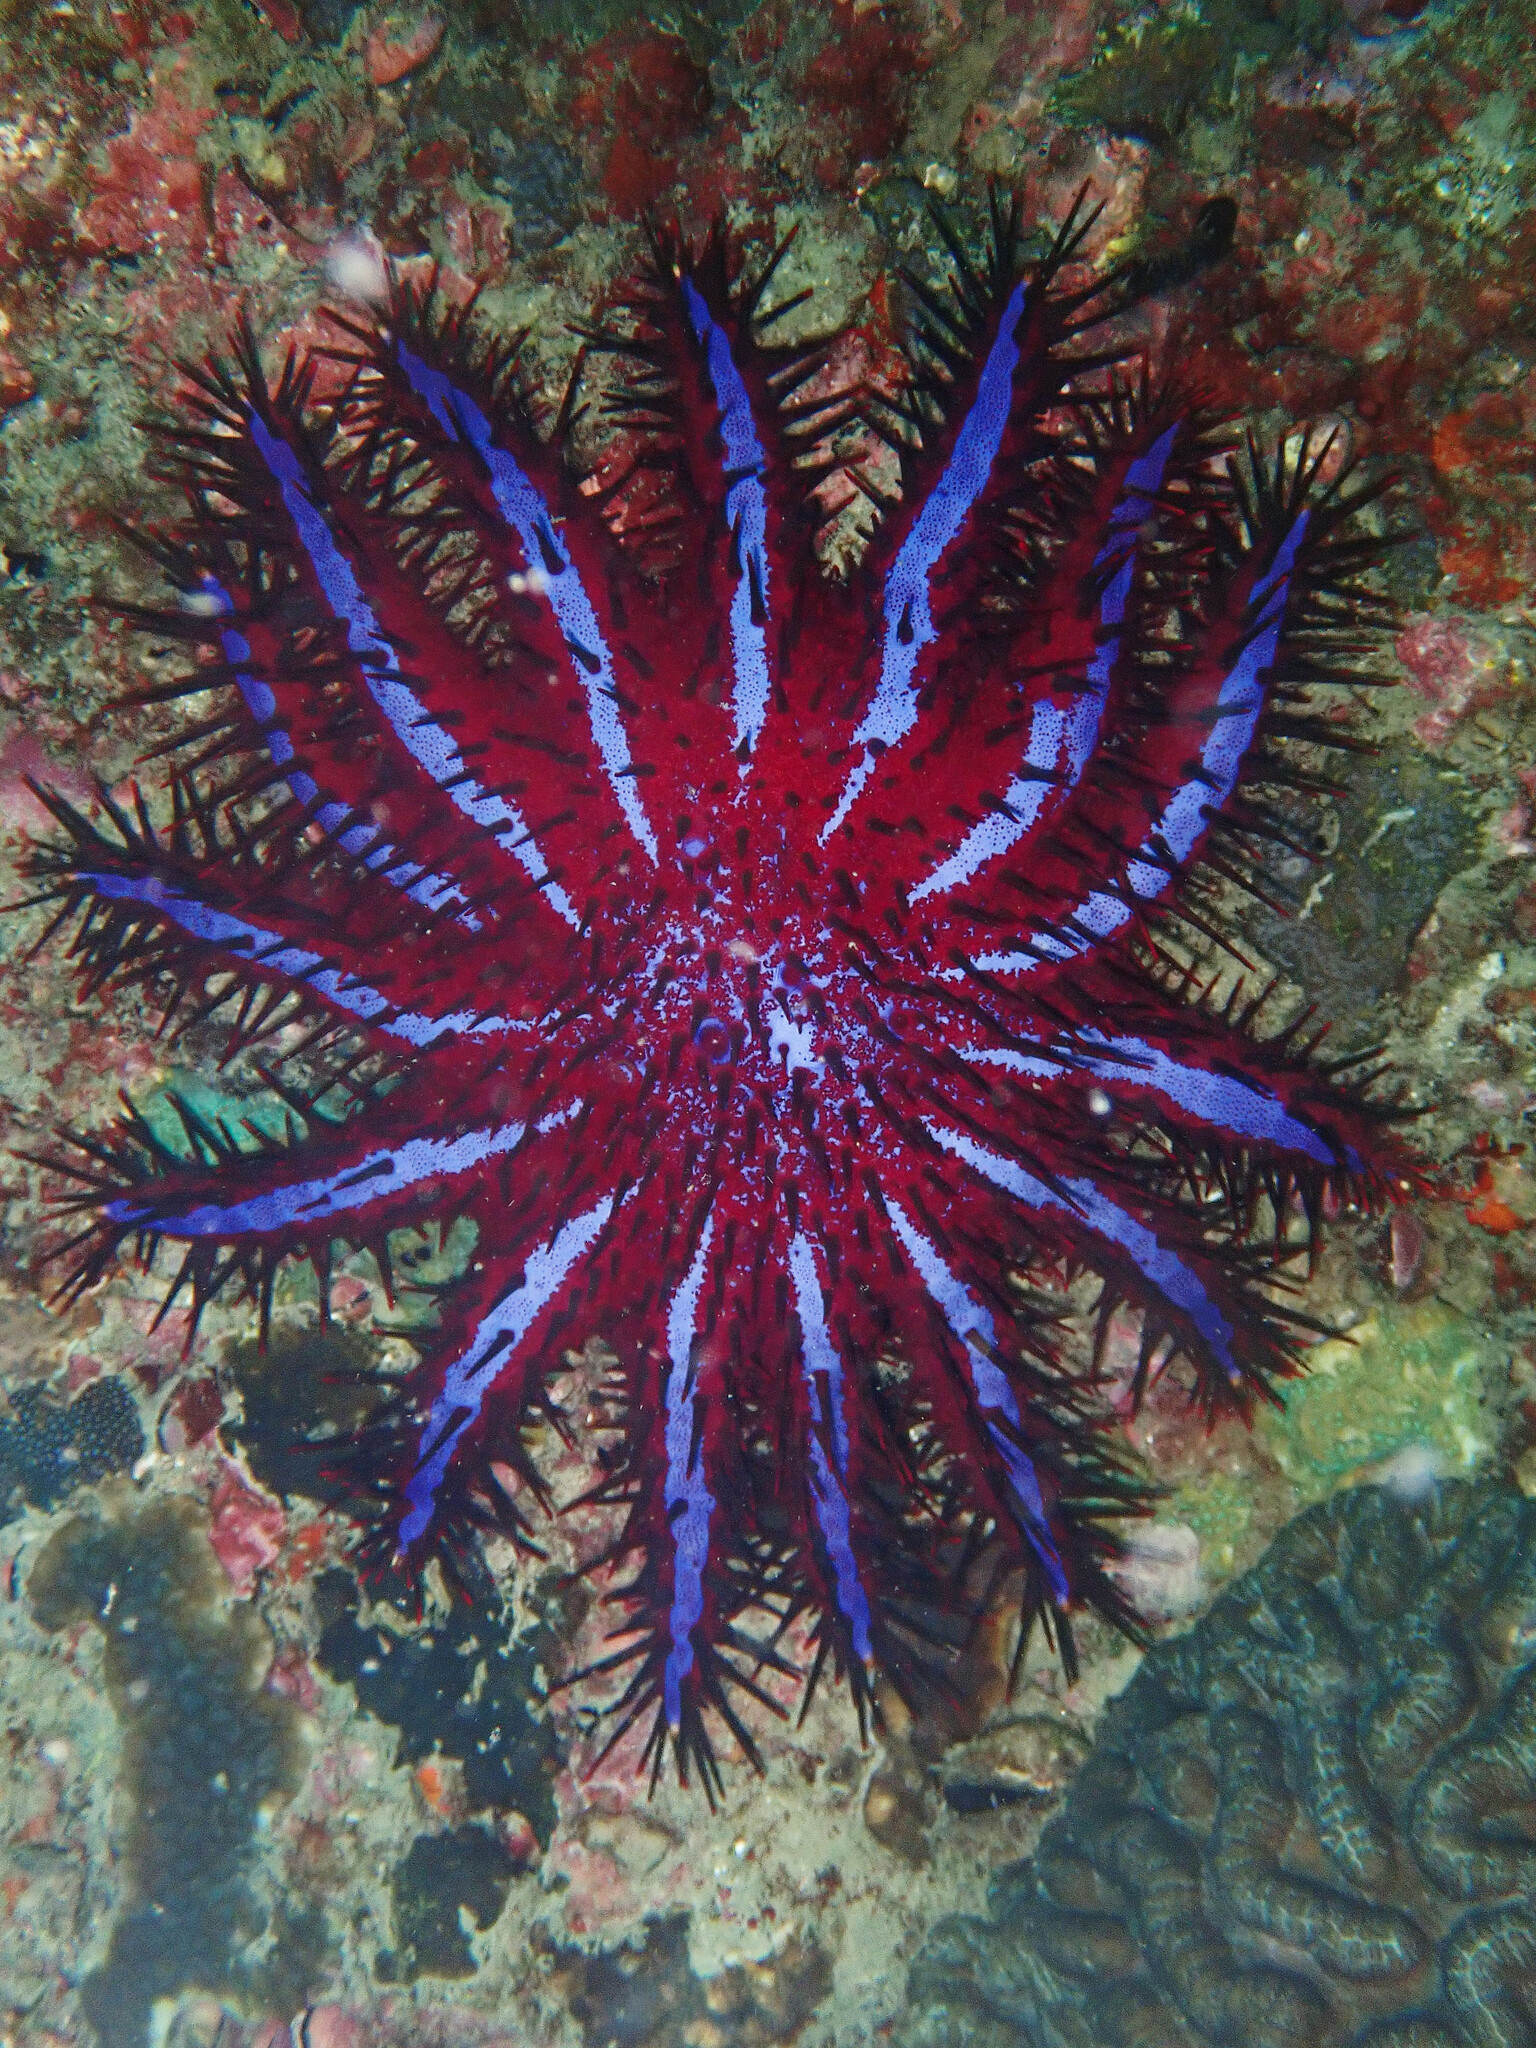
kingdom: Animalia
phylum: Echinodermata
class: Asteroidea
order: Valvatida
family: Acanthasteridae
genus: Acanthaster
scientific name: Acanthaster planci
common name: Crown-of-thorns
